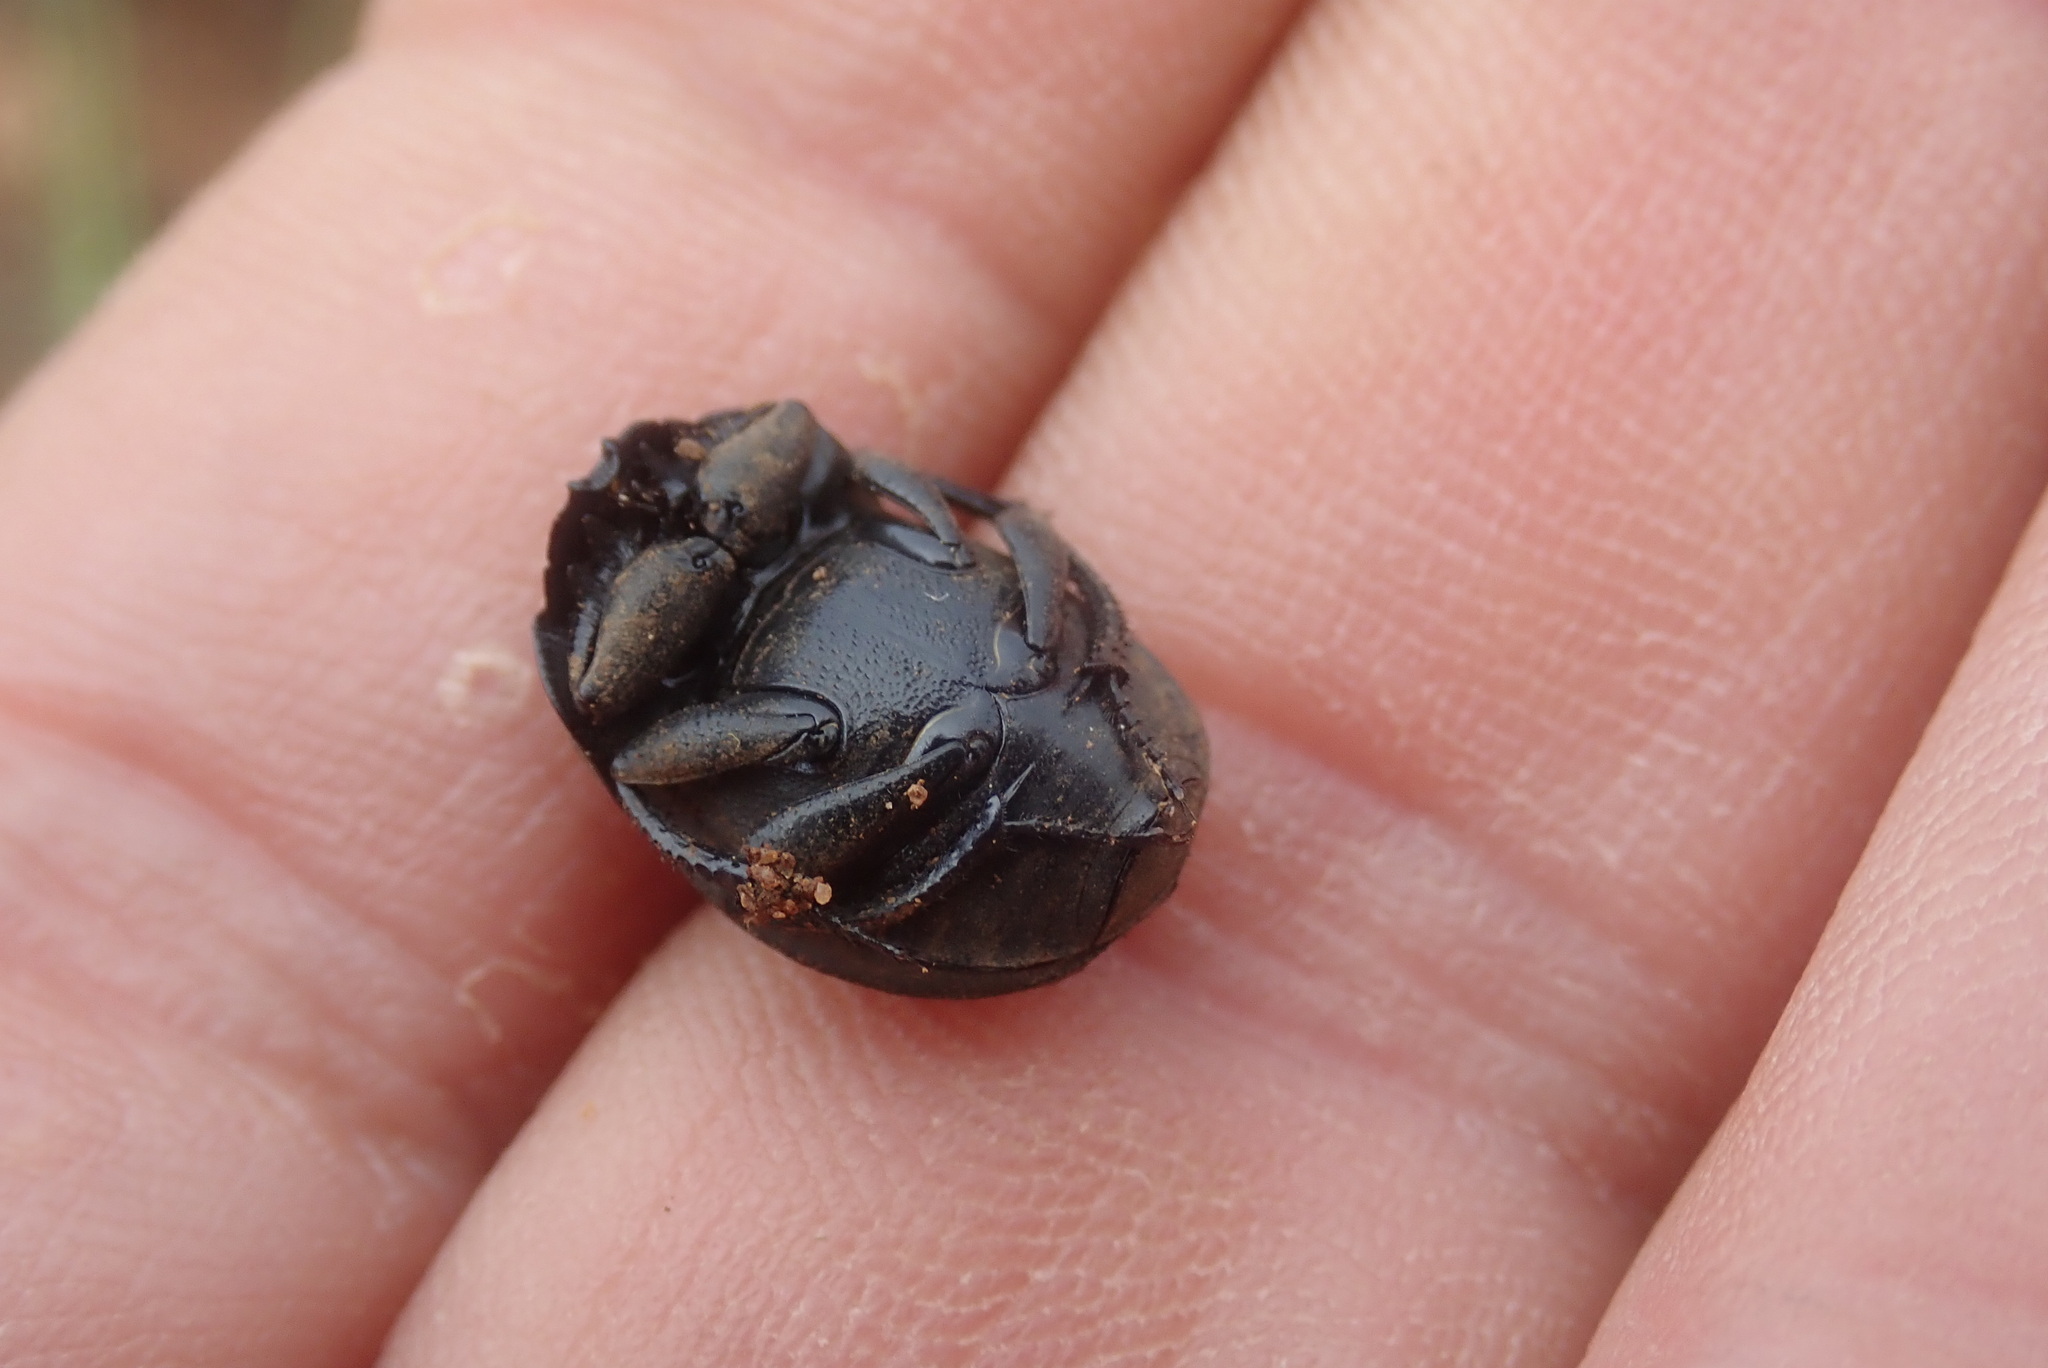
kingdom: Animalia
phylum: Arthropoda
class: Insecta
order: Coleoptera
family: Scarabaeidae
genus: Epirinus
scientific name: Epirinus validus
